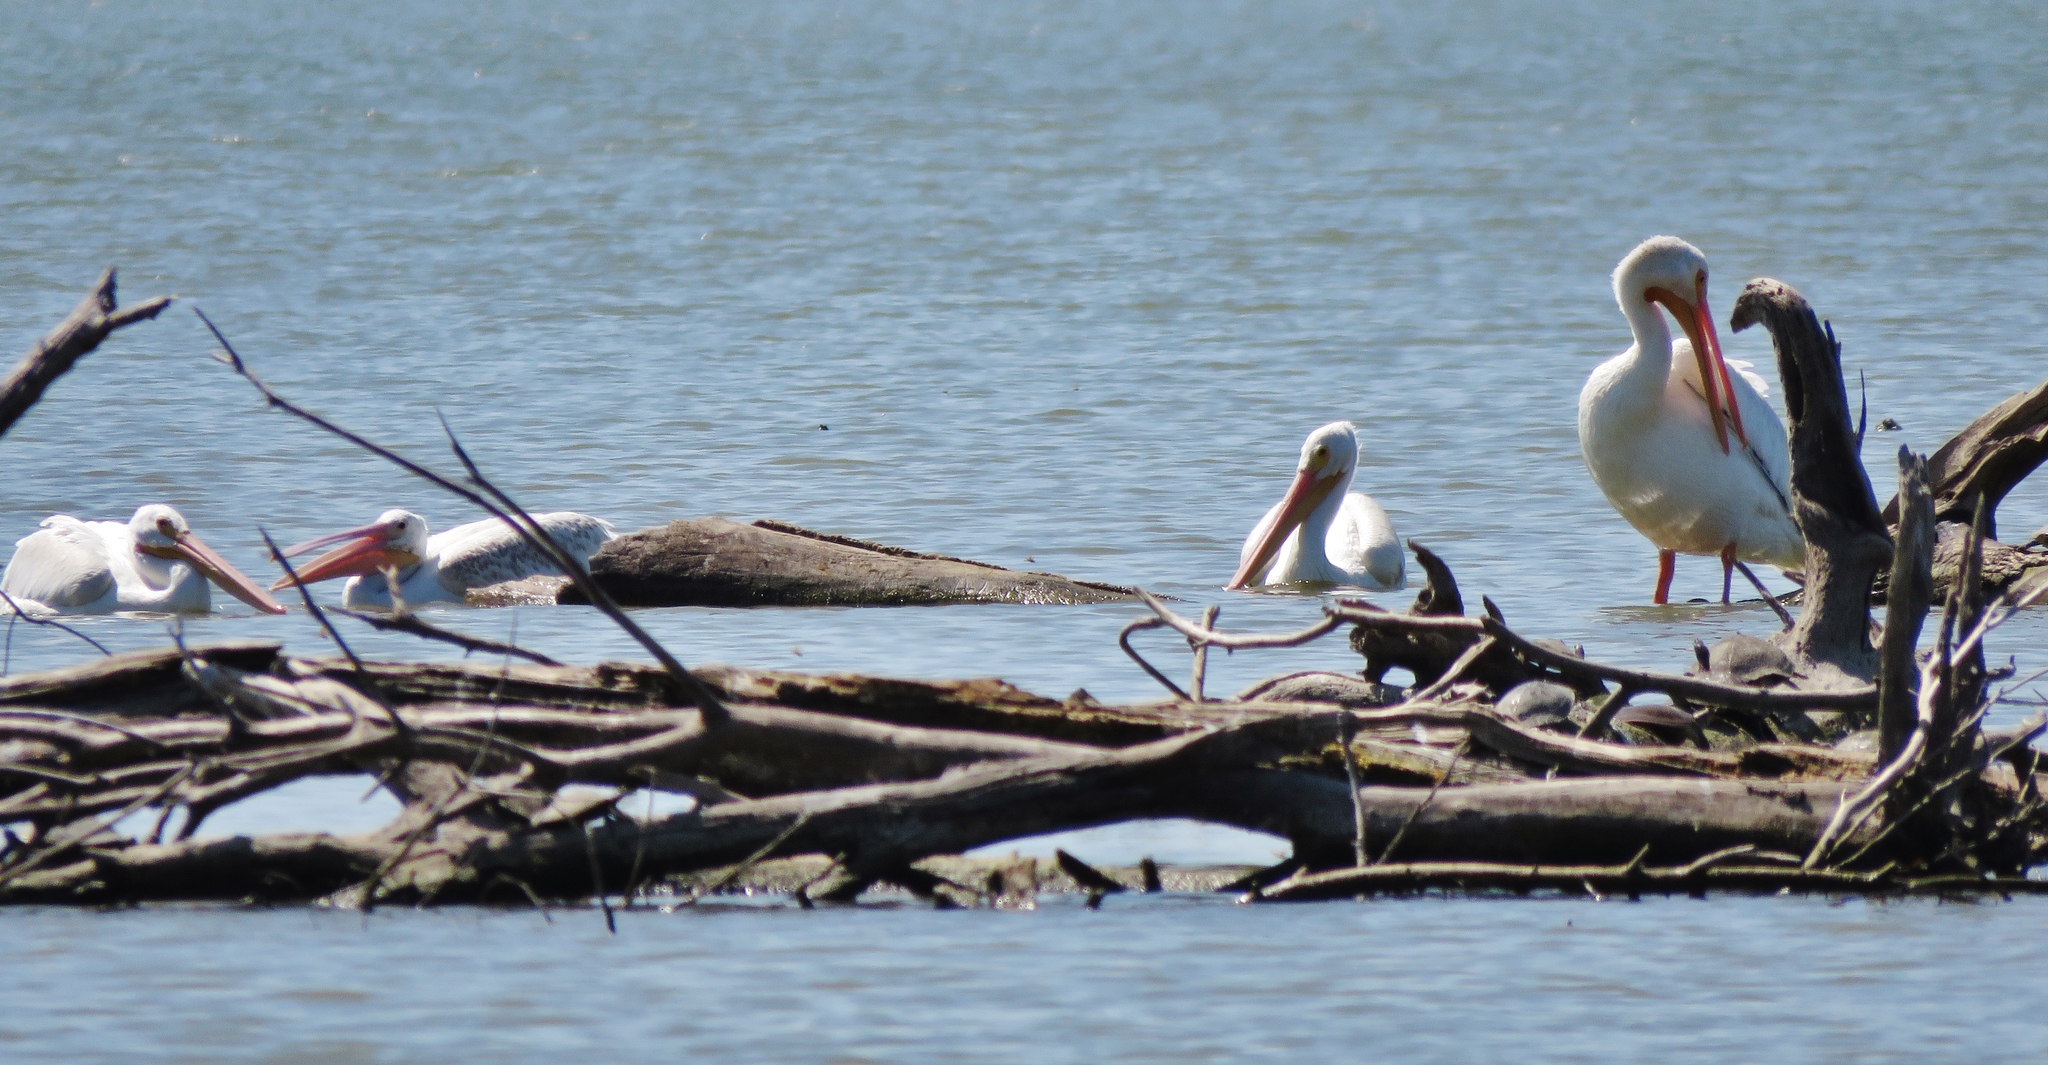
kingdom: Animalia
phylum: Chordata
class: Aves
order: Pelecaniformes
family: Pelecanidae
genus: Pelecanus
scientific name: Pelecanus erythrorhynchos
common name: American white pelican
